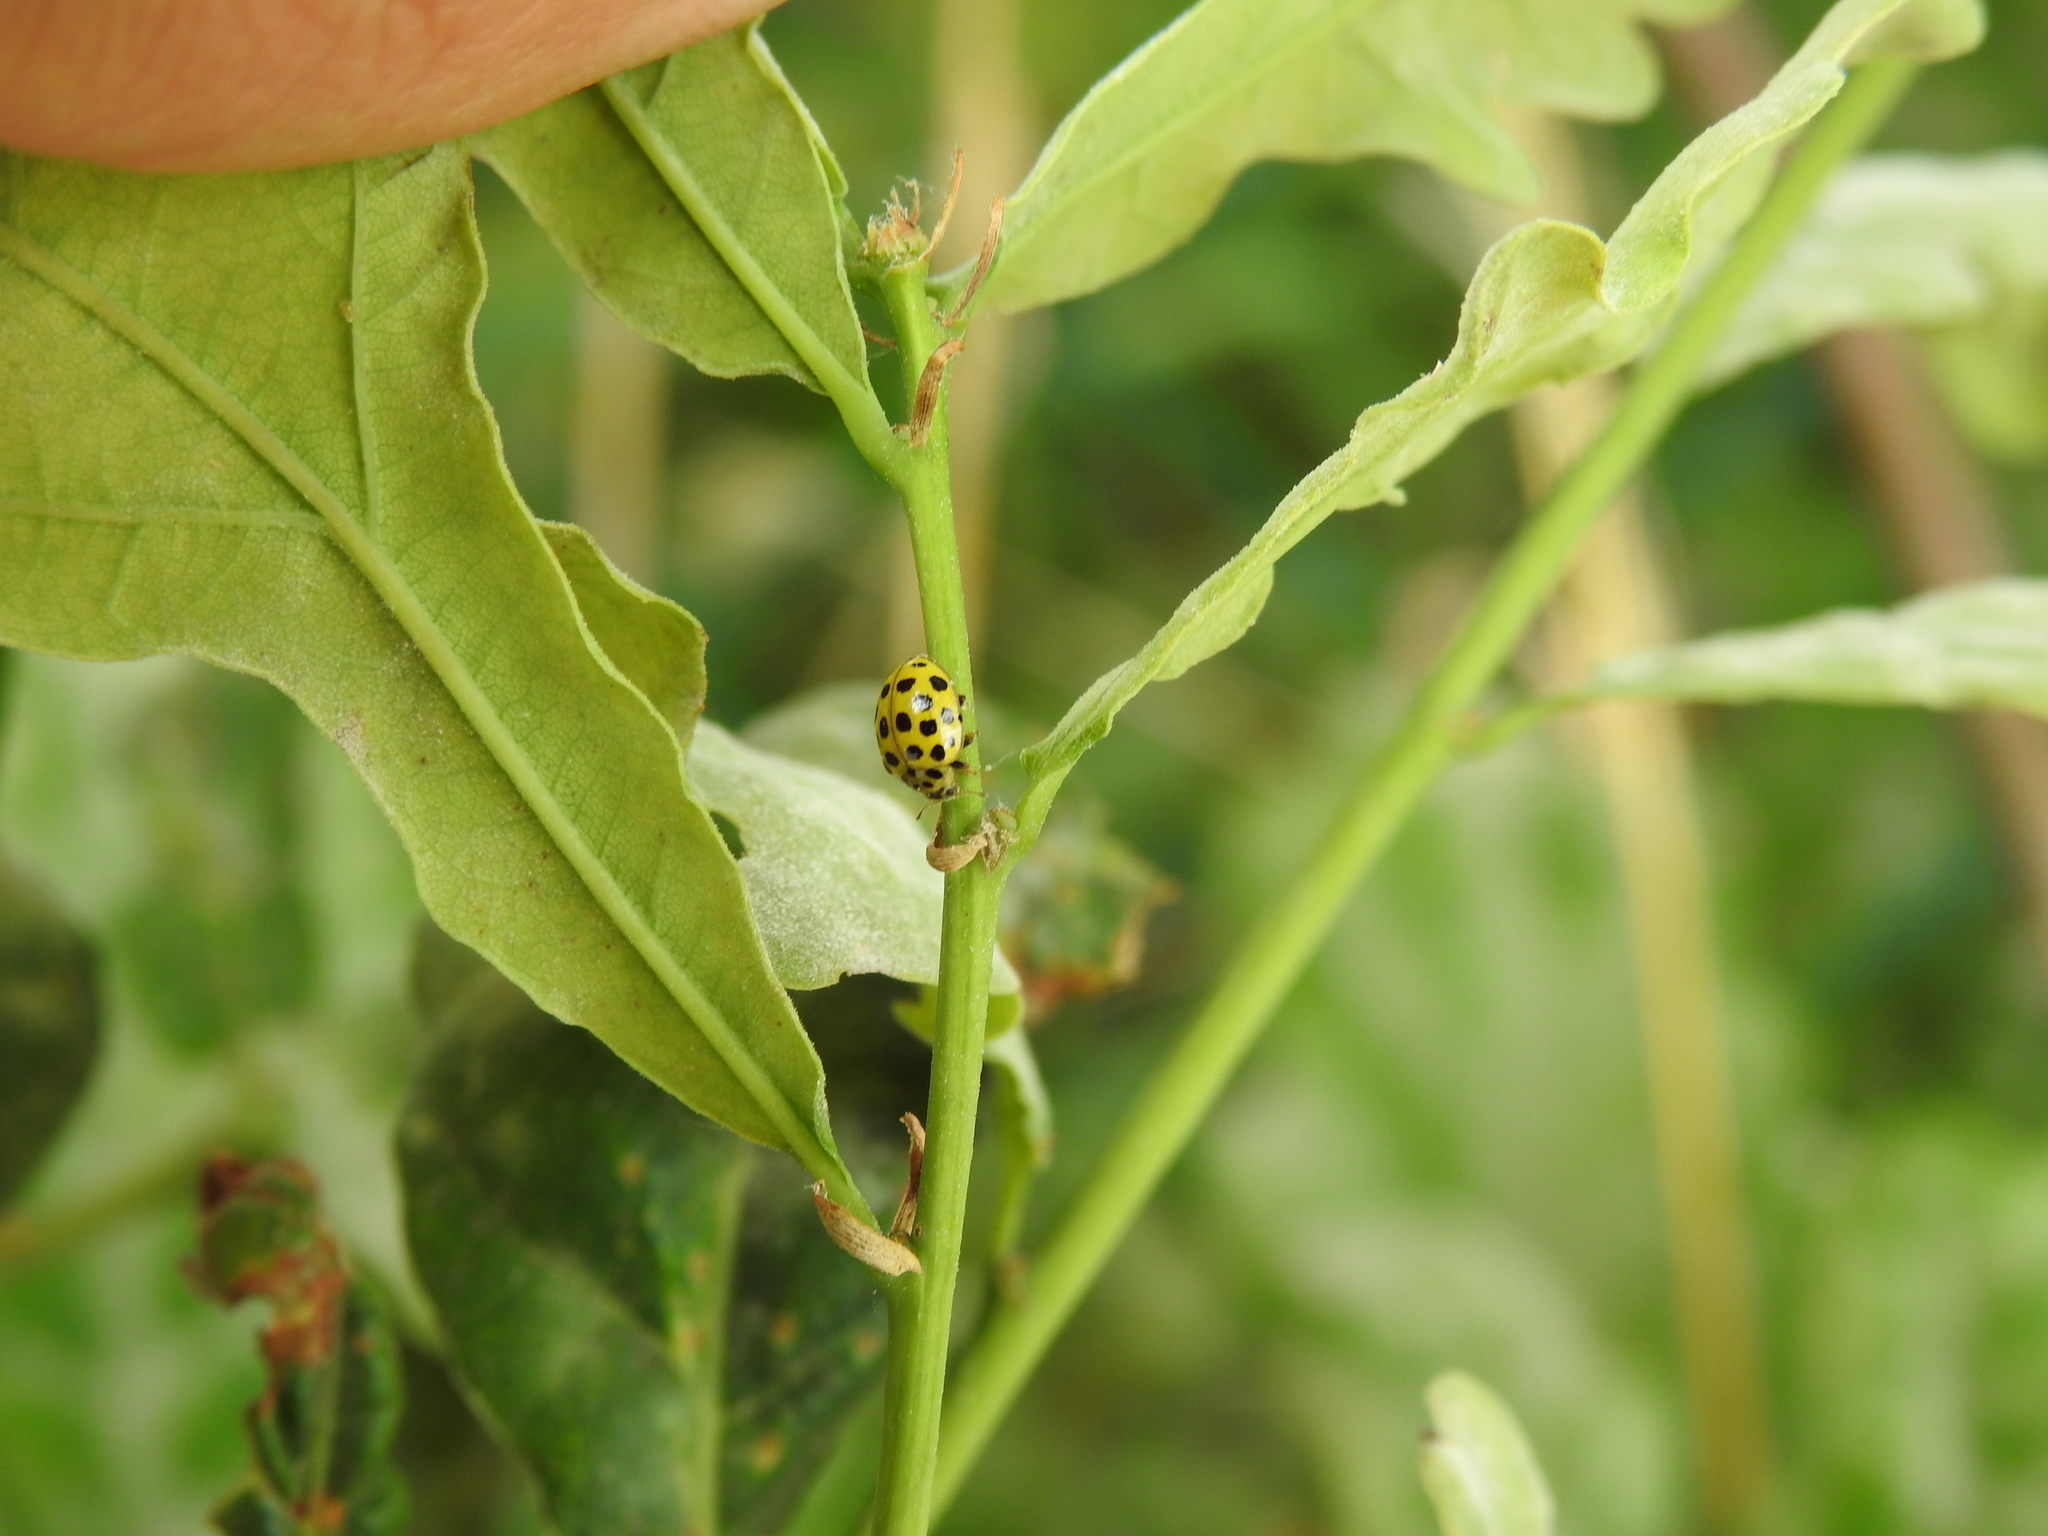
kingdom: Animalia
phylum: Arthropoda
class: Insecta
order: Coleoptera
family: Coccinellidae
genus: Psyllobora
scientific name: Psyllobora vigintiduopunctata
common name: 22-spot ladybird
